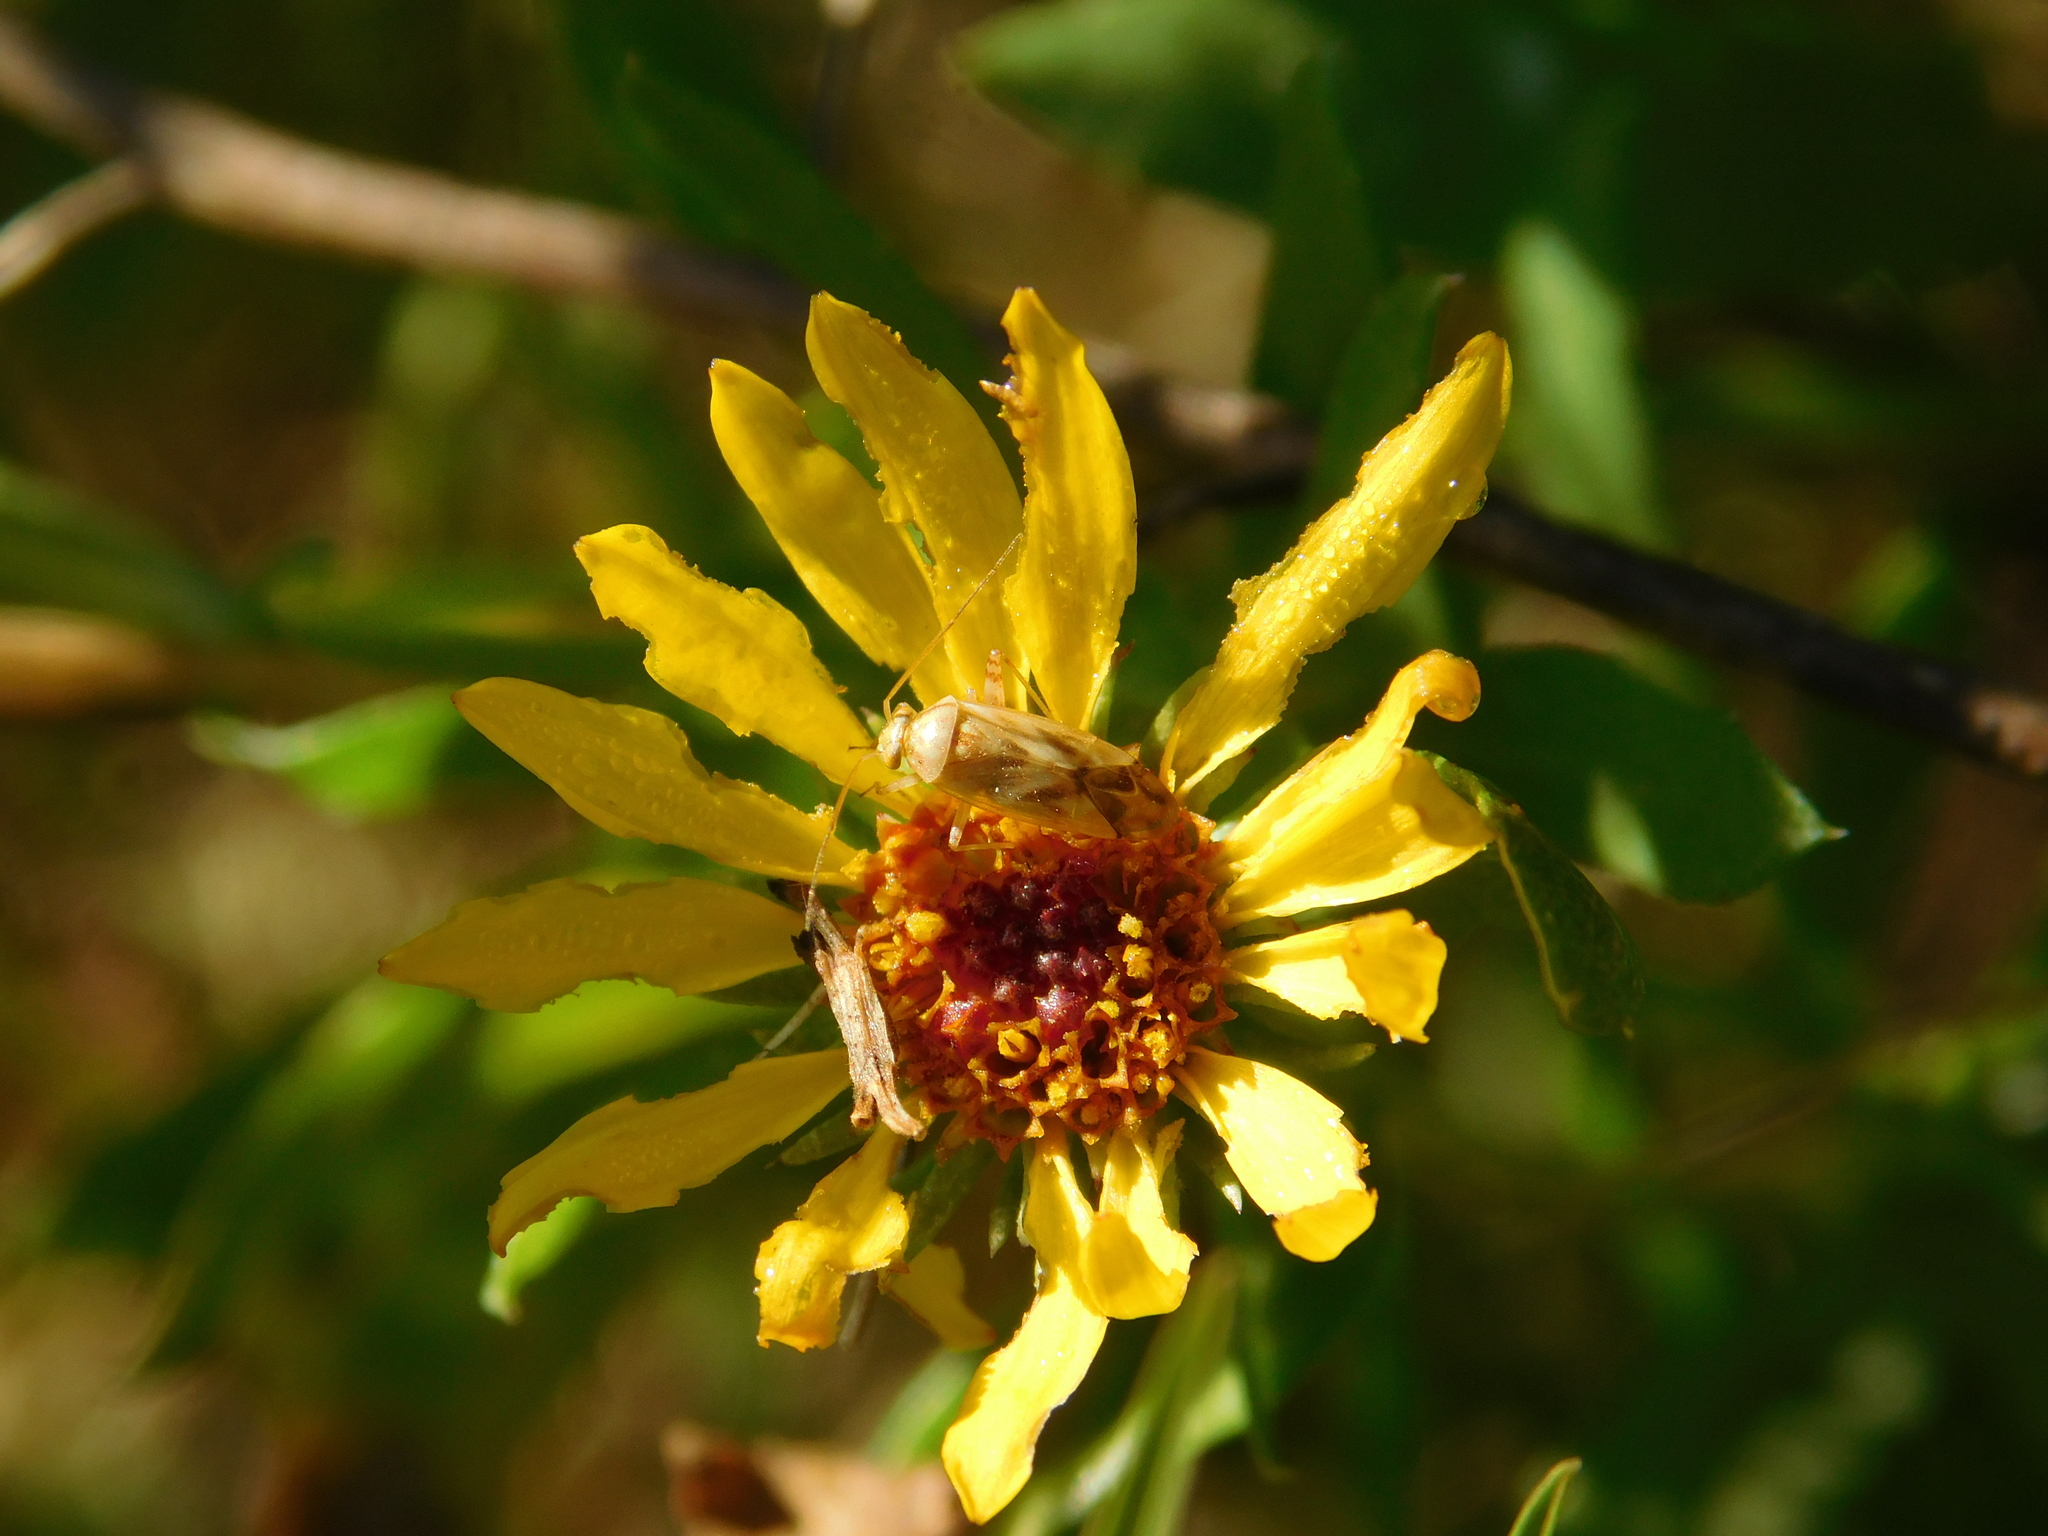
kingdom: Animalia
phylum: Arthropoda
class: Insecta
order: Hemiptera
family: Miridae
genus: Taylorilygus
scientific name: Taylorilygus apicalis
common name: Plant bug
